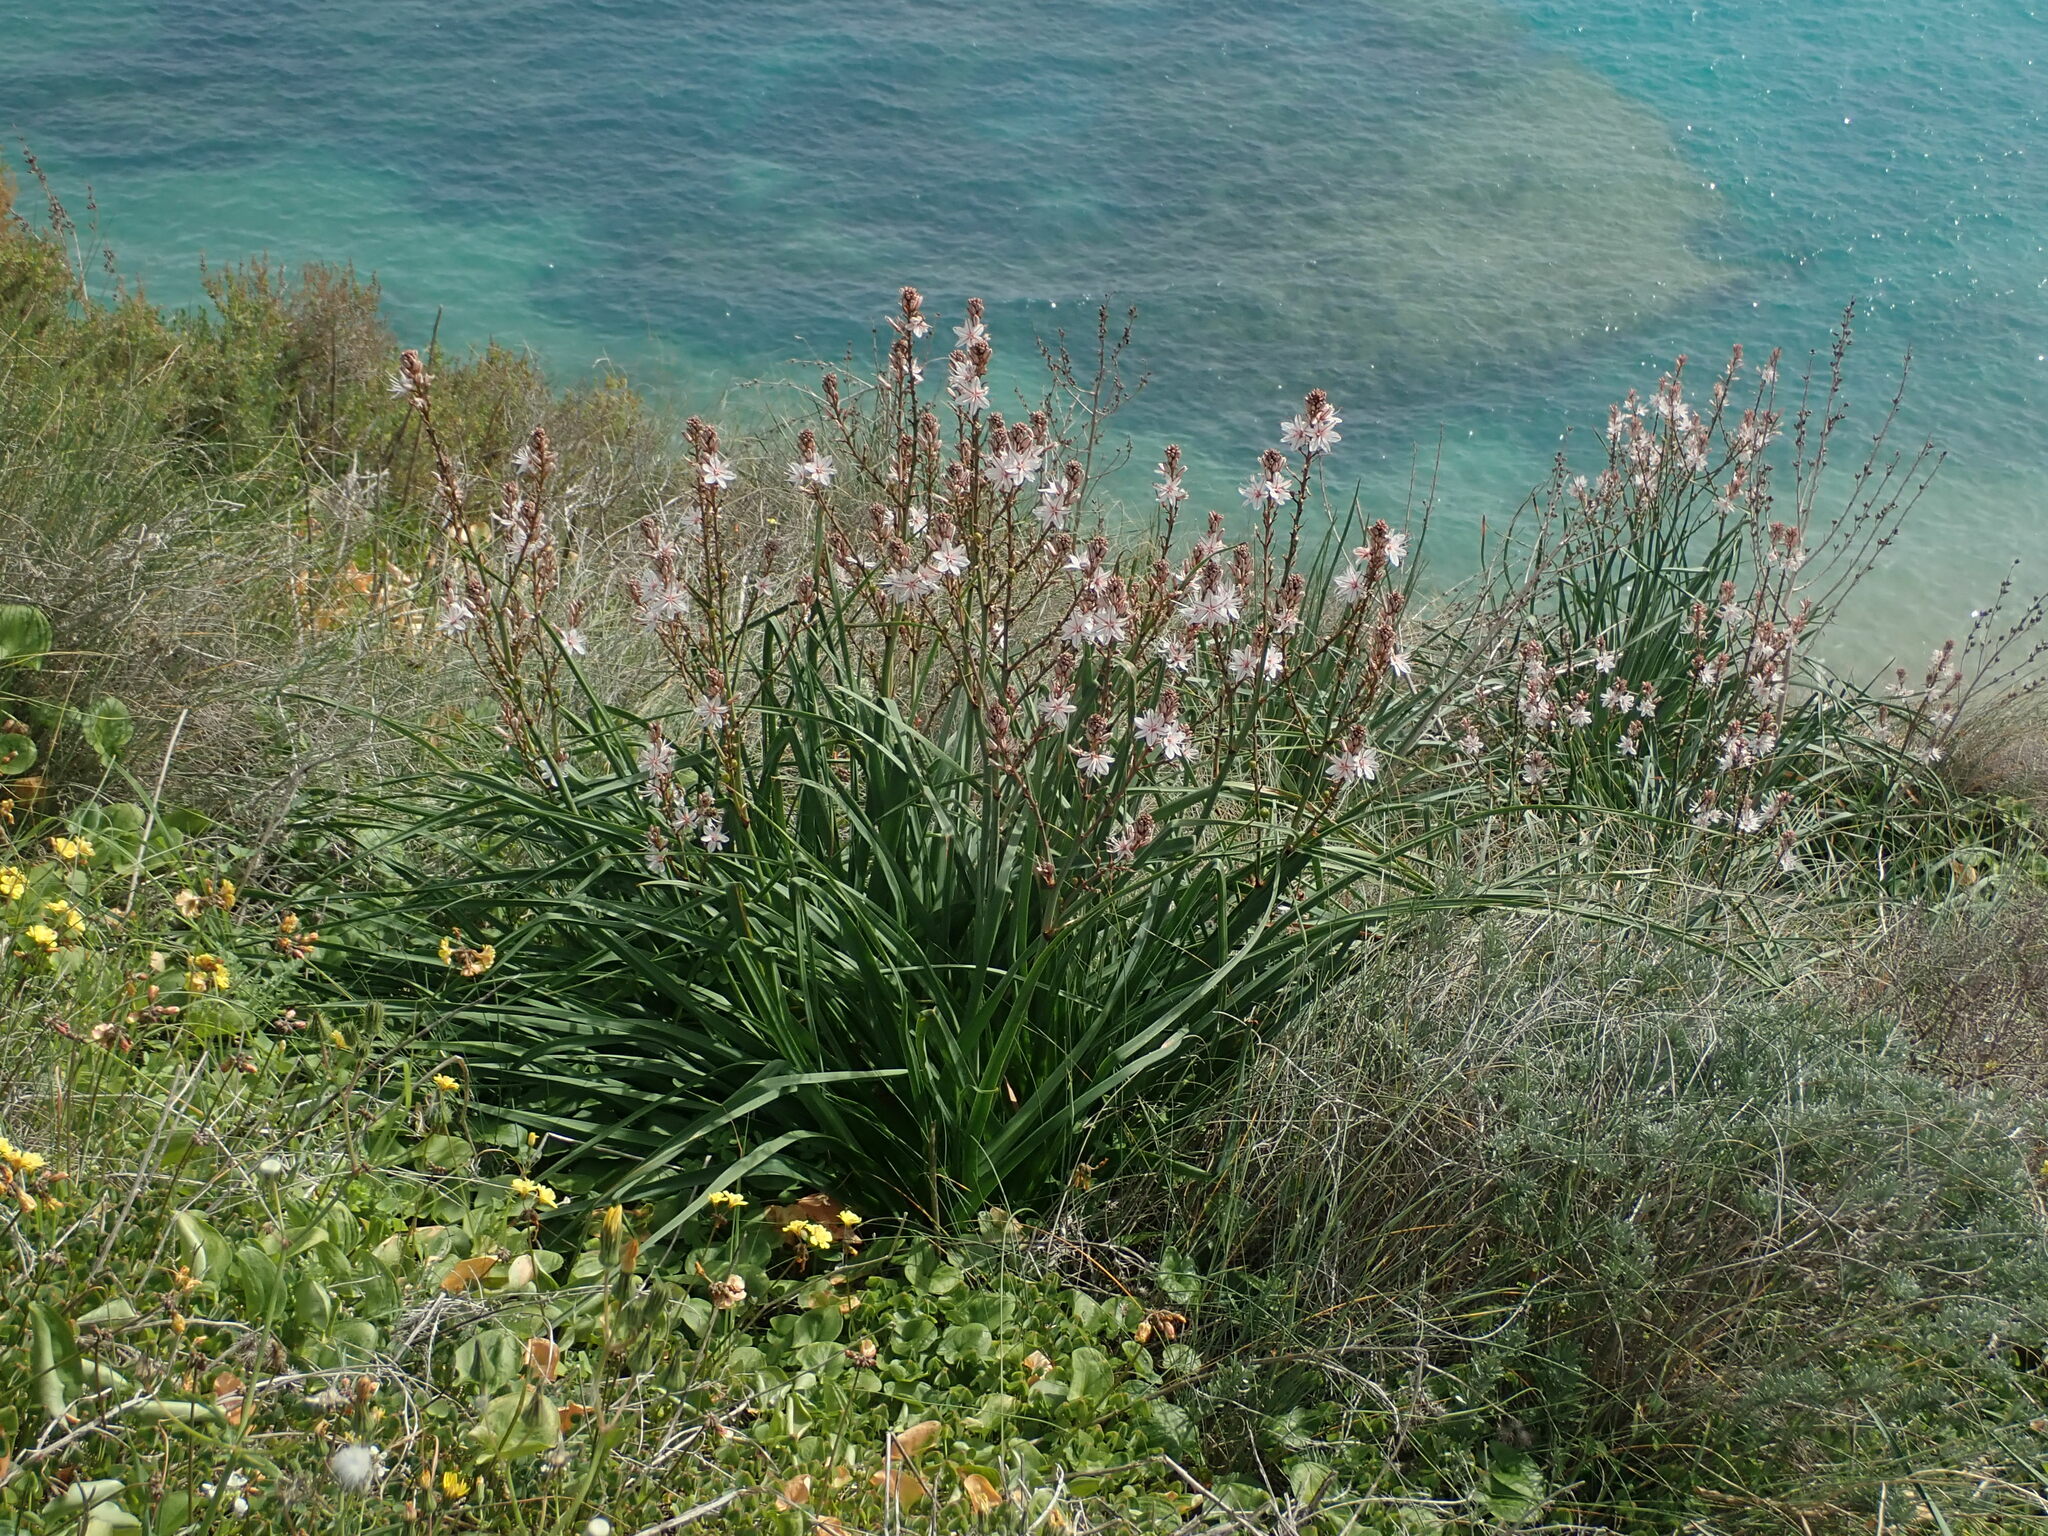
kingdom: Plantae
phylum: Tracheophyta
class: Liliopsida
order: Asparagales
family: Asphodelaceae
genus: Asphodelus
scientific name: Asphodelus ramosus
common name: Silverrod
